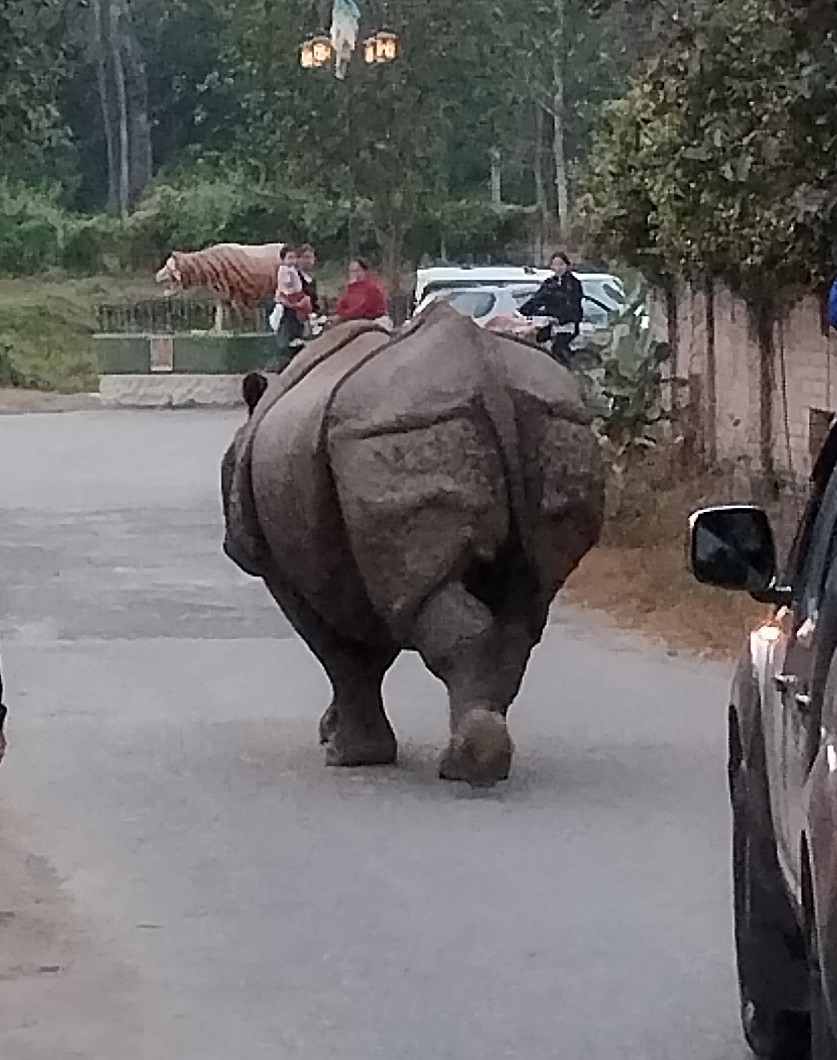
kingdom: Animalia
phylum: Chordata
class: Mammalia
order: Perissodactyla
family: Rhinocerotidae
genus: Rhinoceros
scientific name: Rhinoceros unicornis
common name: Indian rhinoceros
